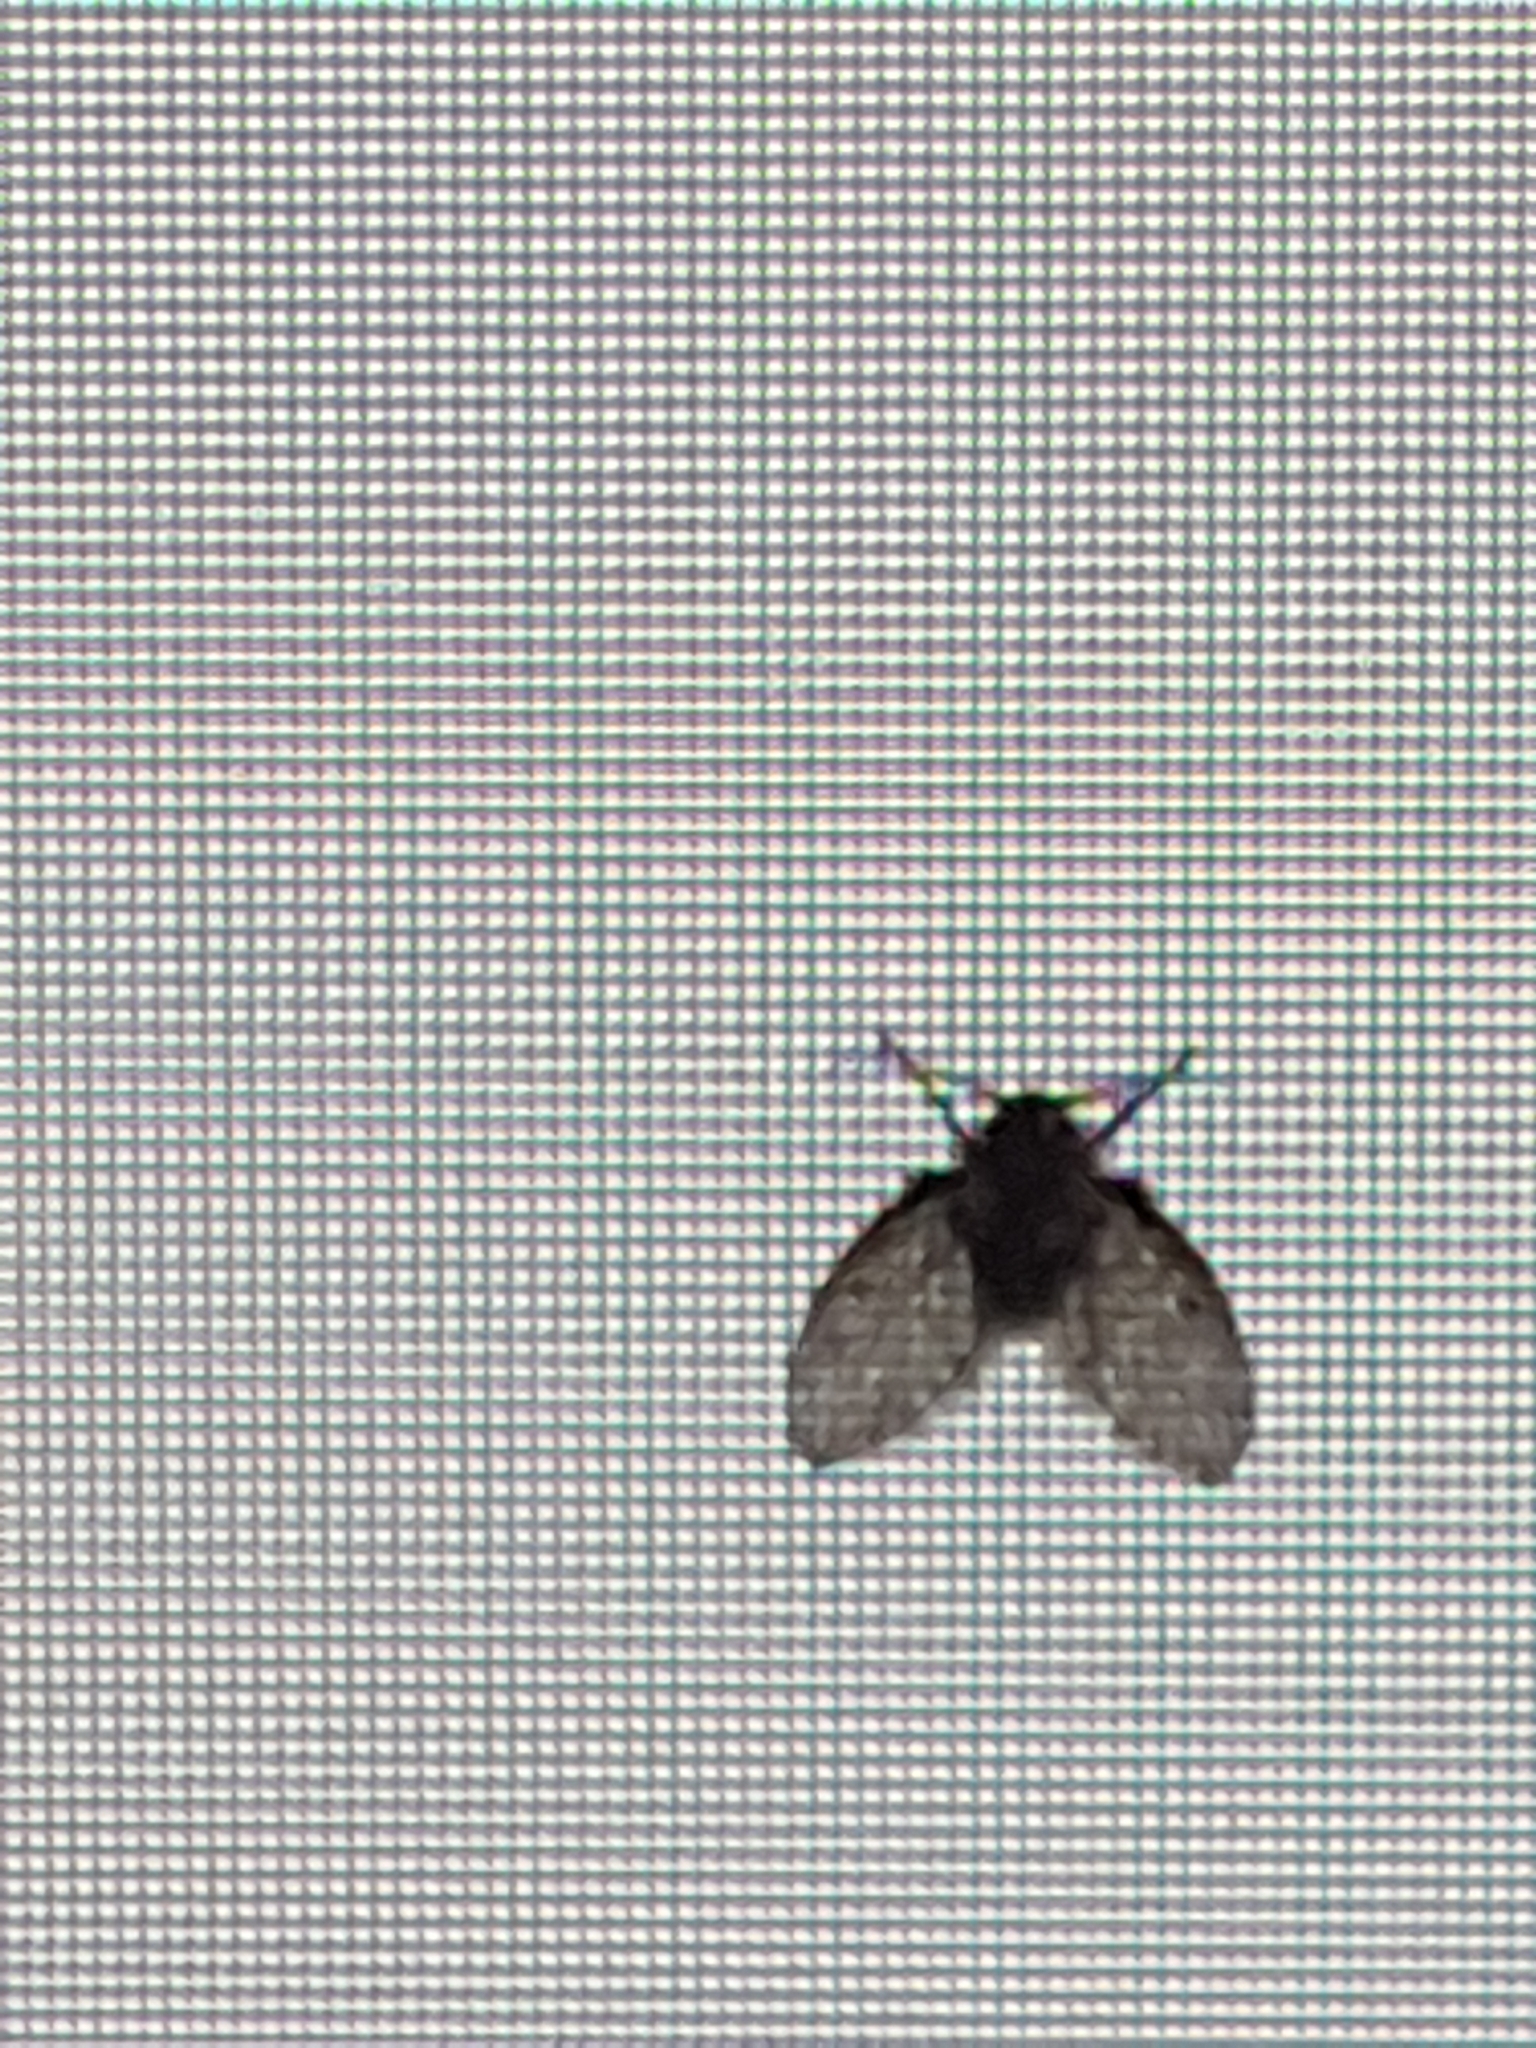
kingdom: Animalia
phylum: Arthropoda
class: Insecta
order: Diptera
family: Psychodidae
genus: Clogmia
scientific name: Clogmia albipunctatus
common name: White-spotted moth fly
